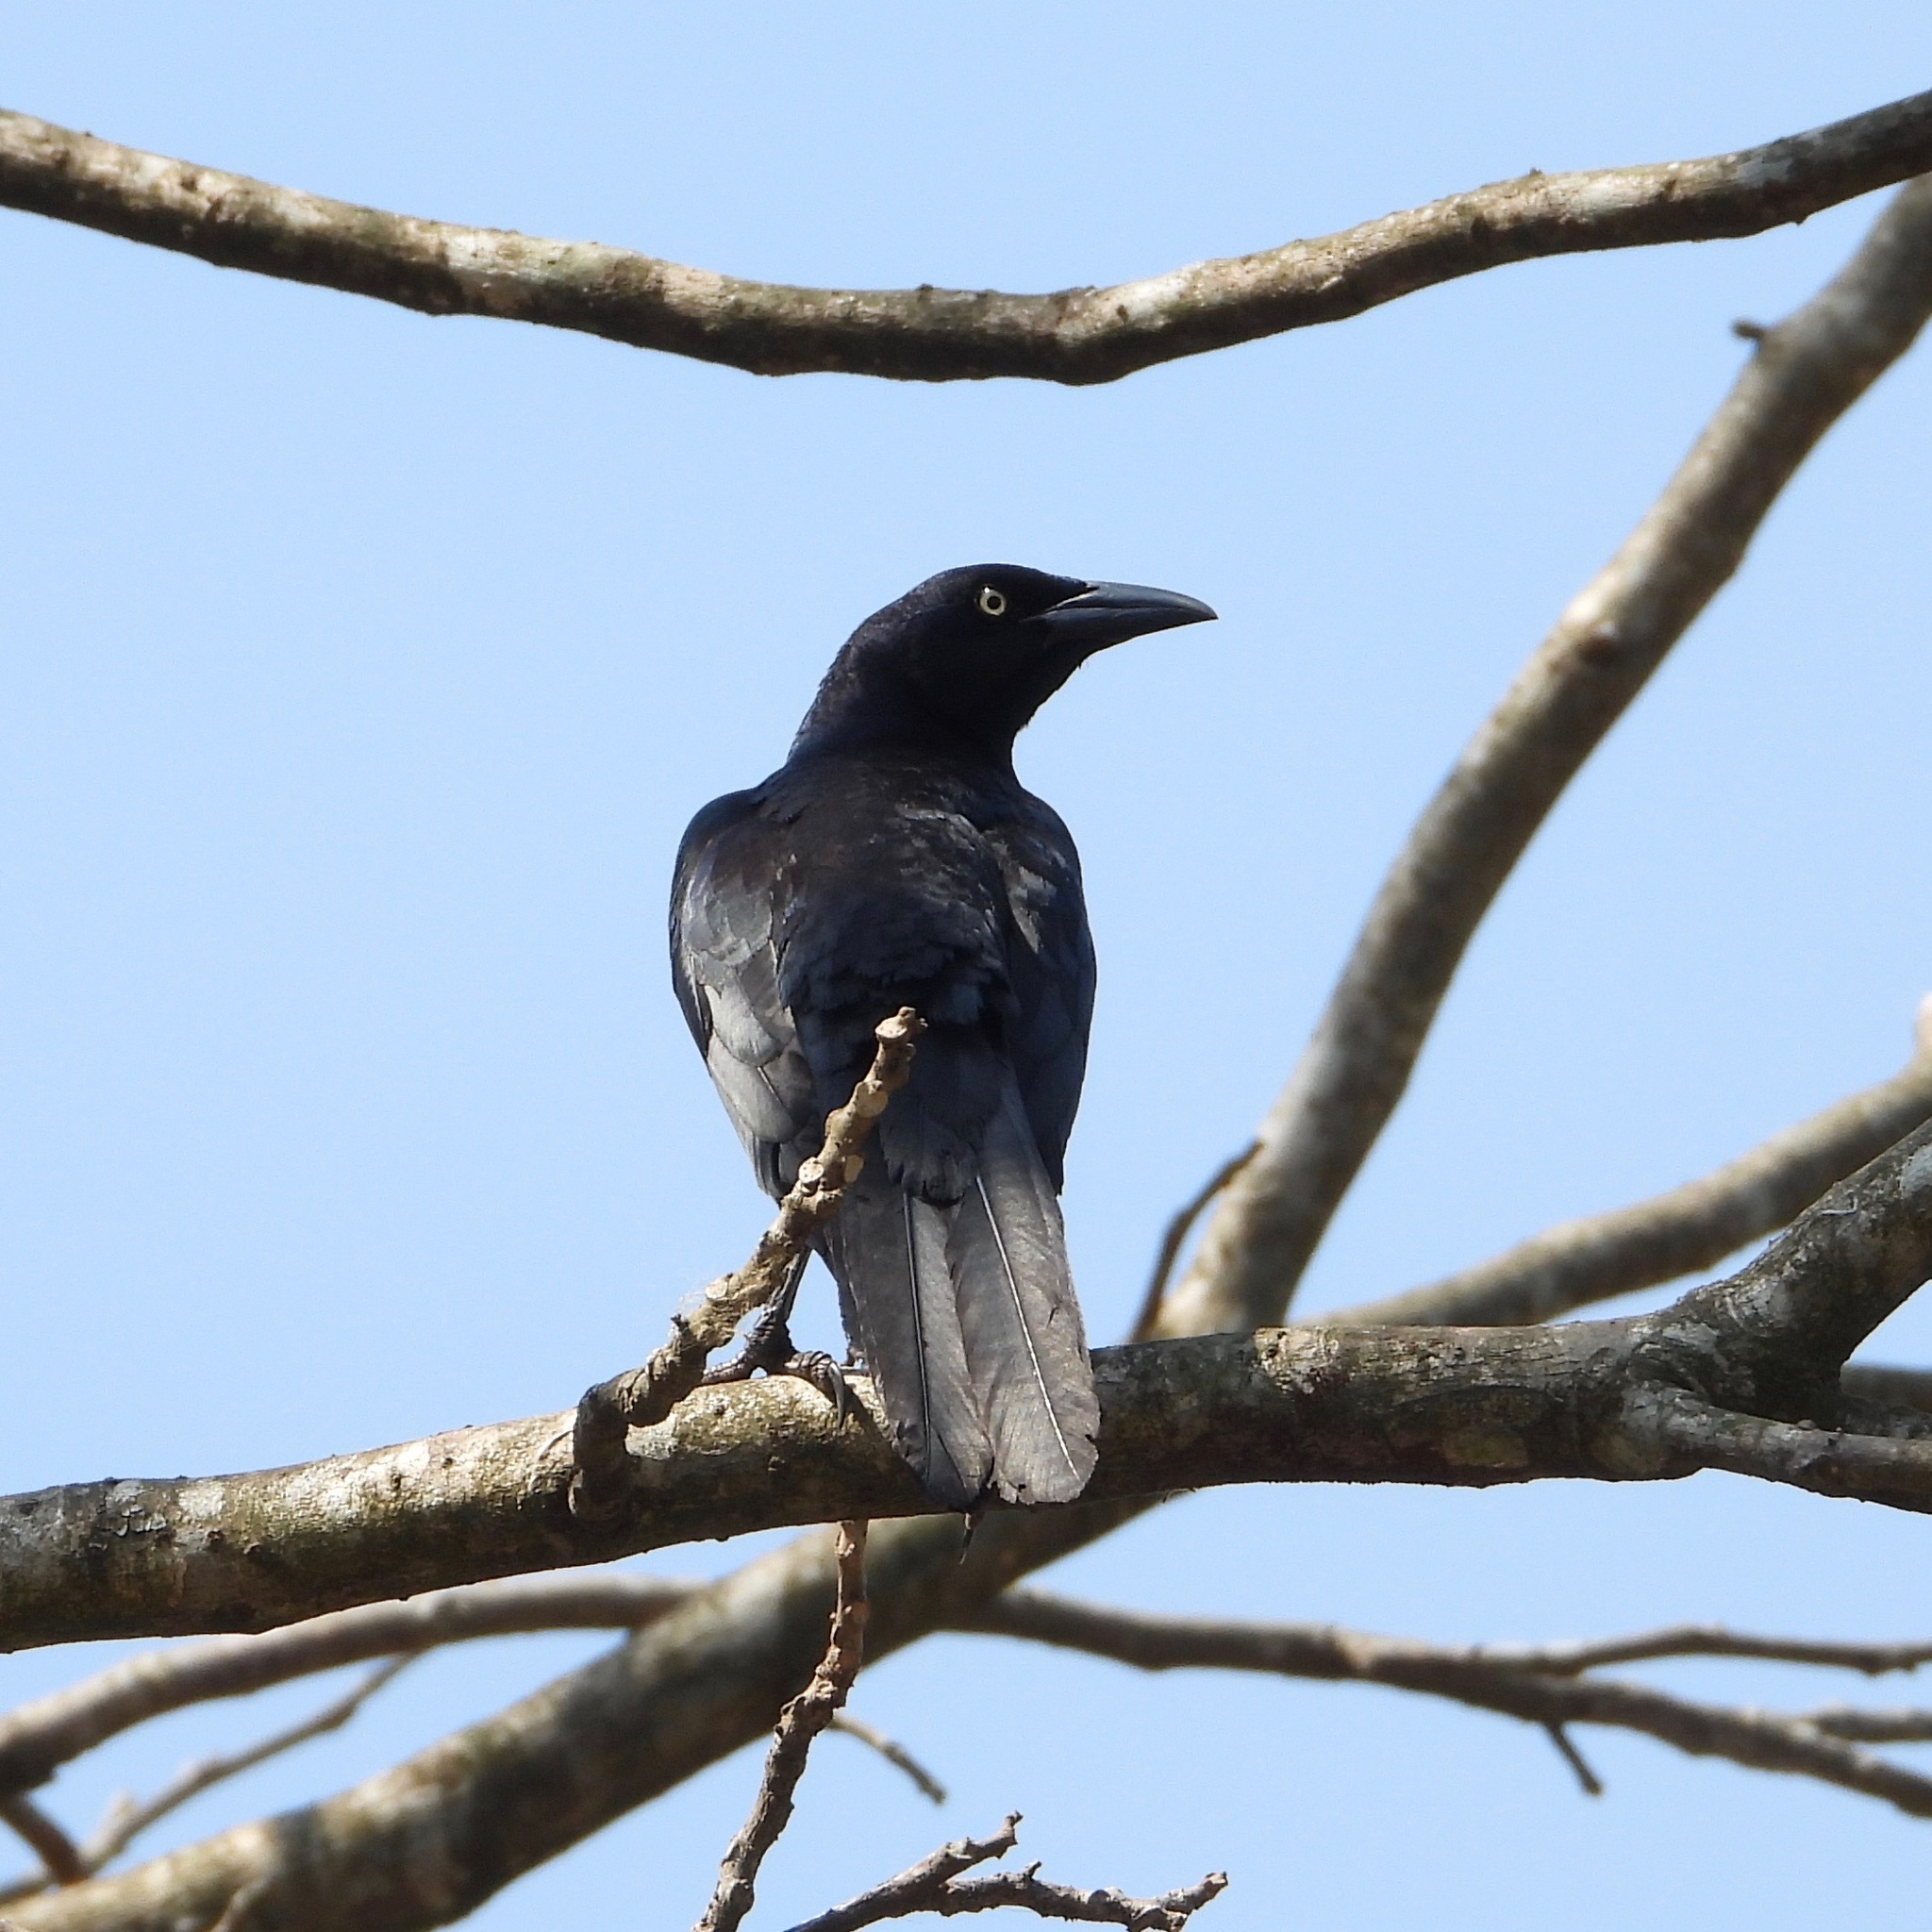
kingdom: Animalia
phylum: Chordata
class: Aves
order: Passeriformes
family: Icteridae
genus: Quiscalus
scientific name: Quiscalus mexicanus
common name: Great-tailed grackle
